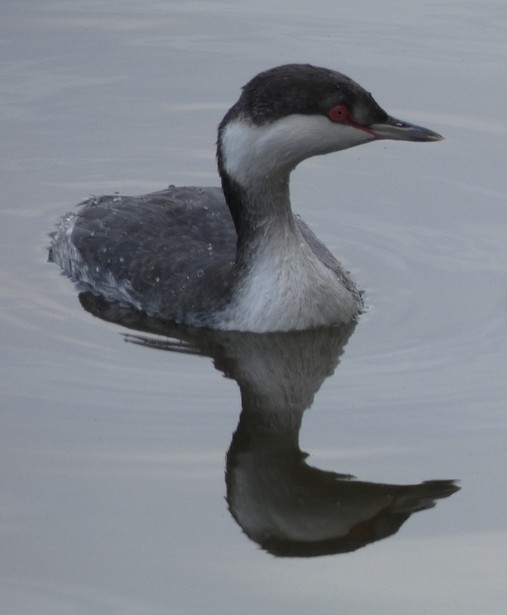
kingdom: Animalia
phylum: Chordata
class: Aves
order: Podicipediformes
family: Podicipedidae
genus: Podiceps
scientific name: Podiceps auritus
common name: Horned grebe
